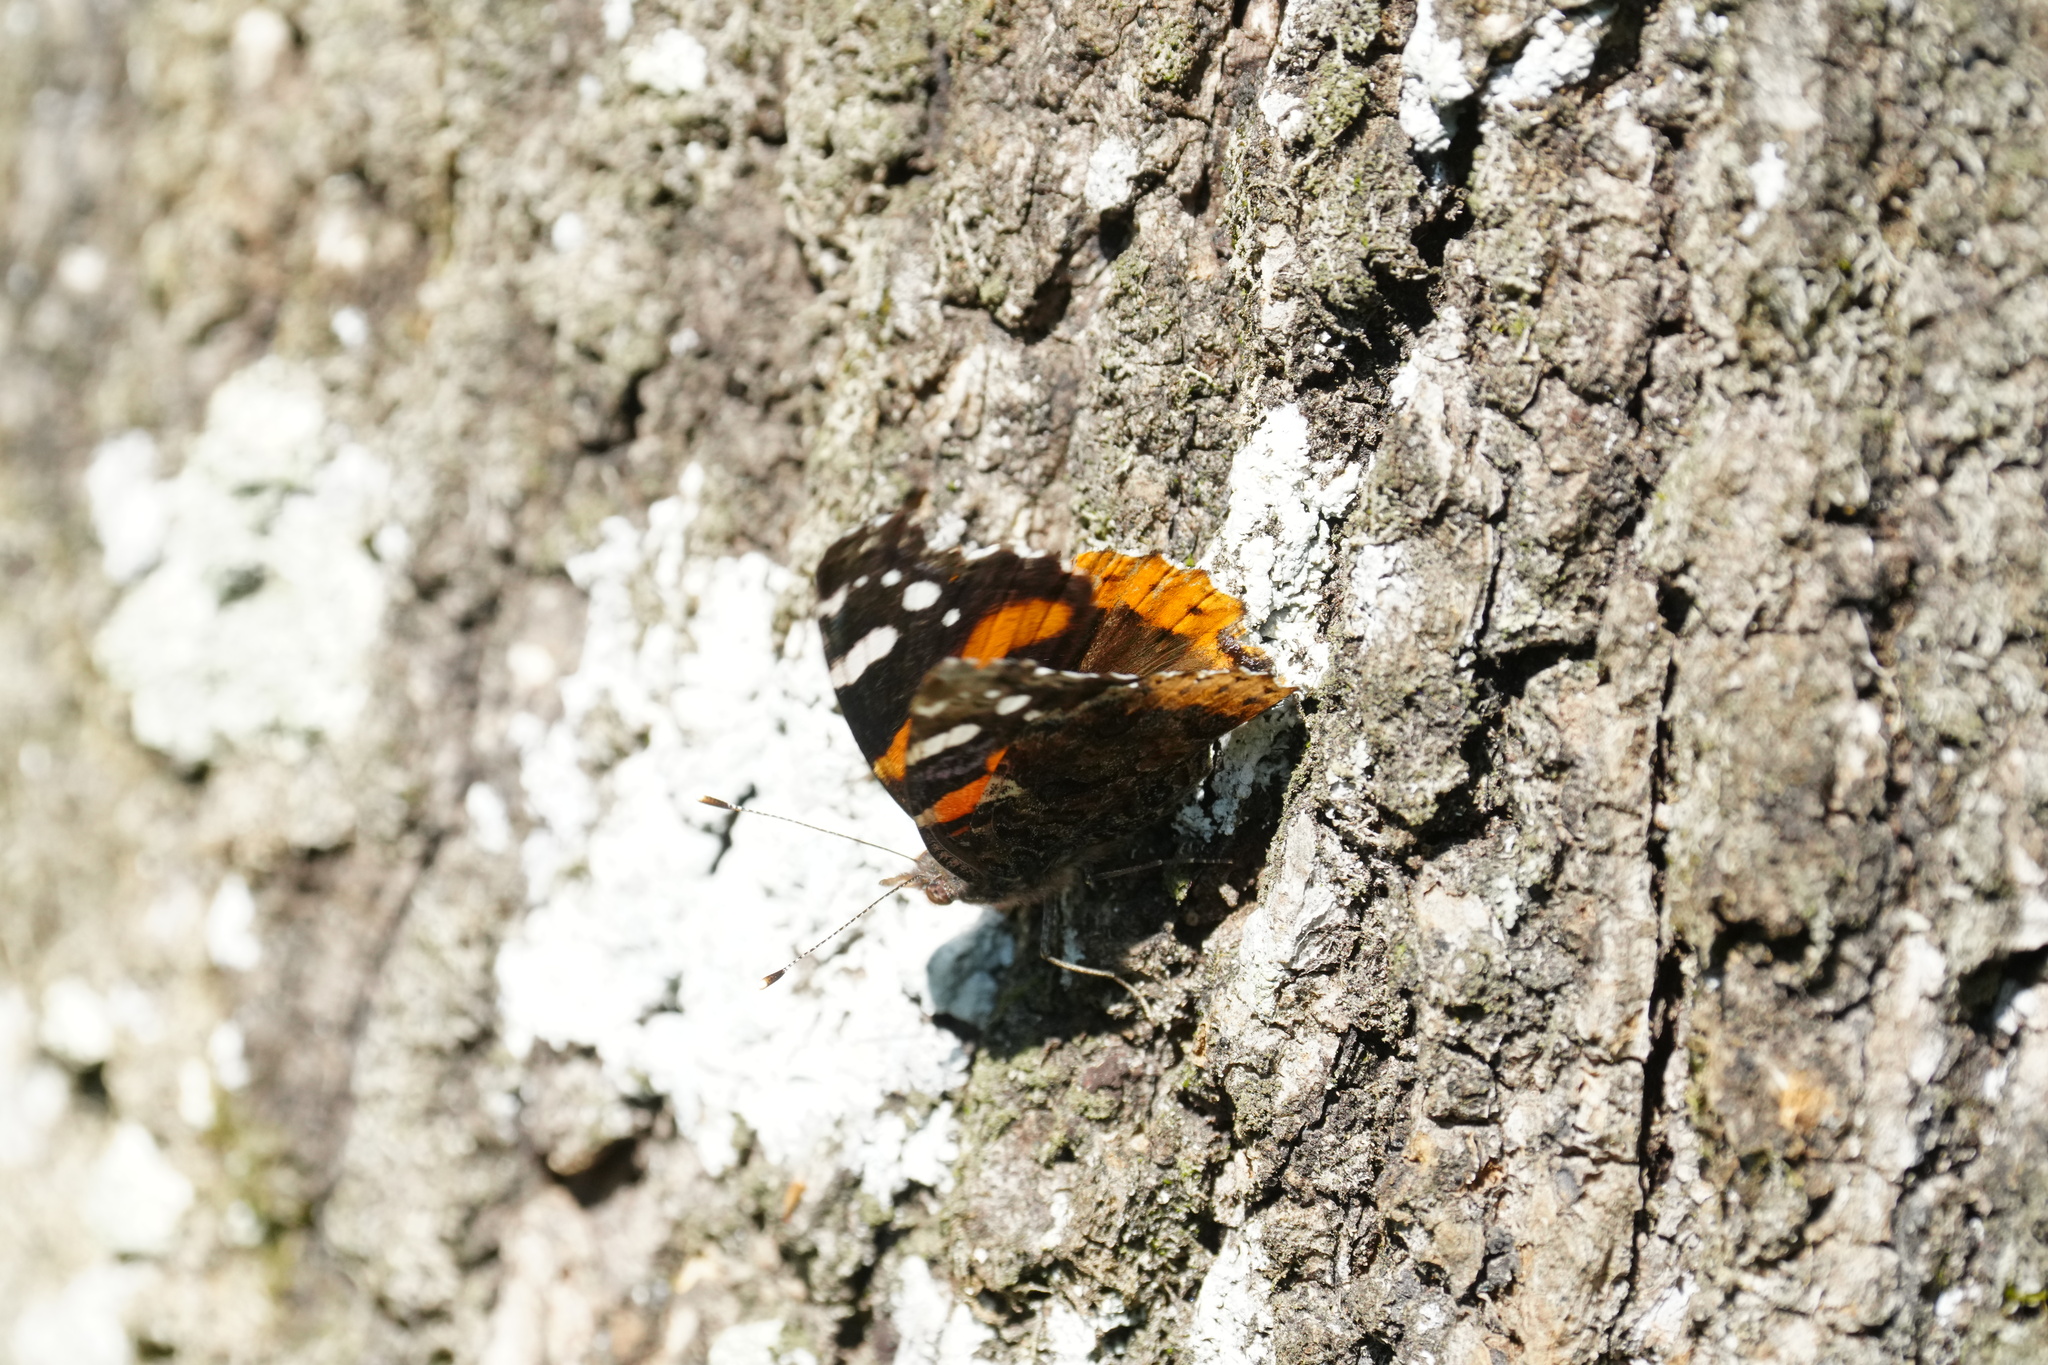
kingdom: Animalia
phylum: Arthropoda
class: Insecta
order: Lepidoptera
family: Nymphalidae
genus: Vanessa
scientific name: Vanessa atalanta
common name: Red admiral
